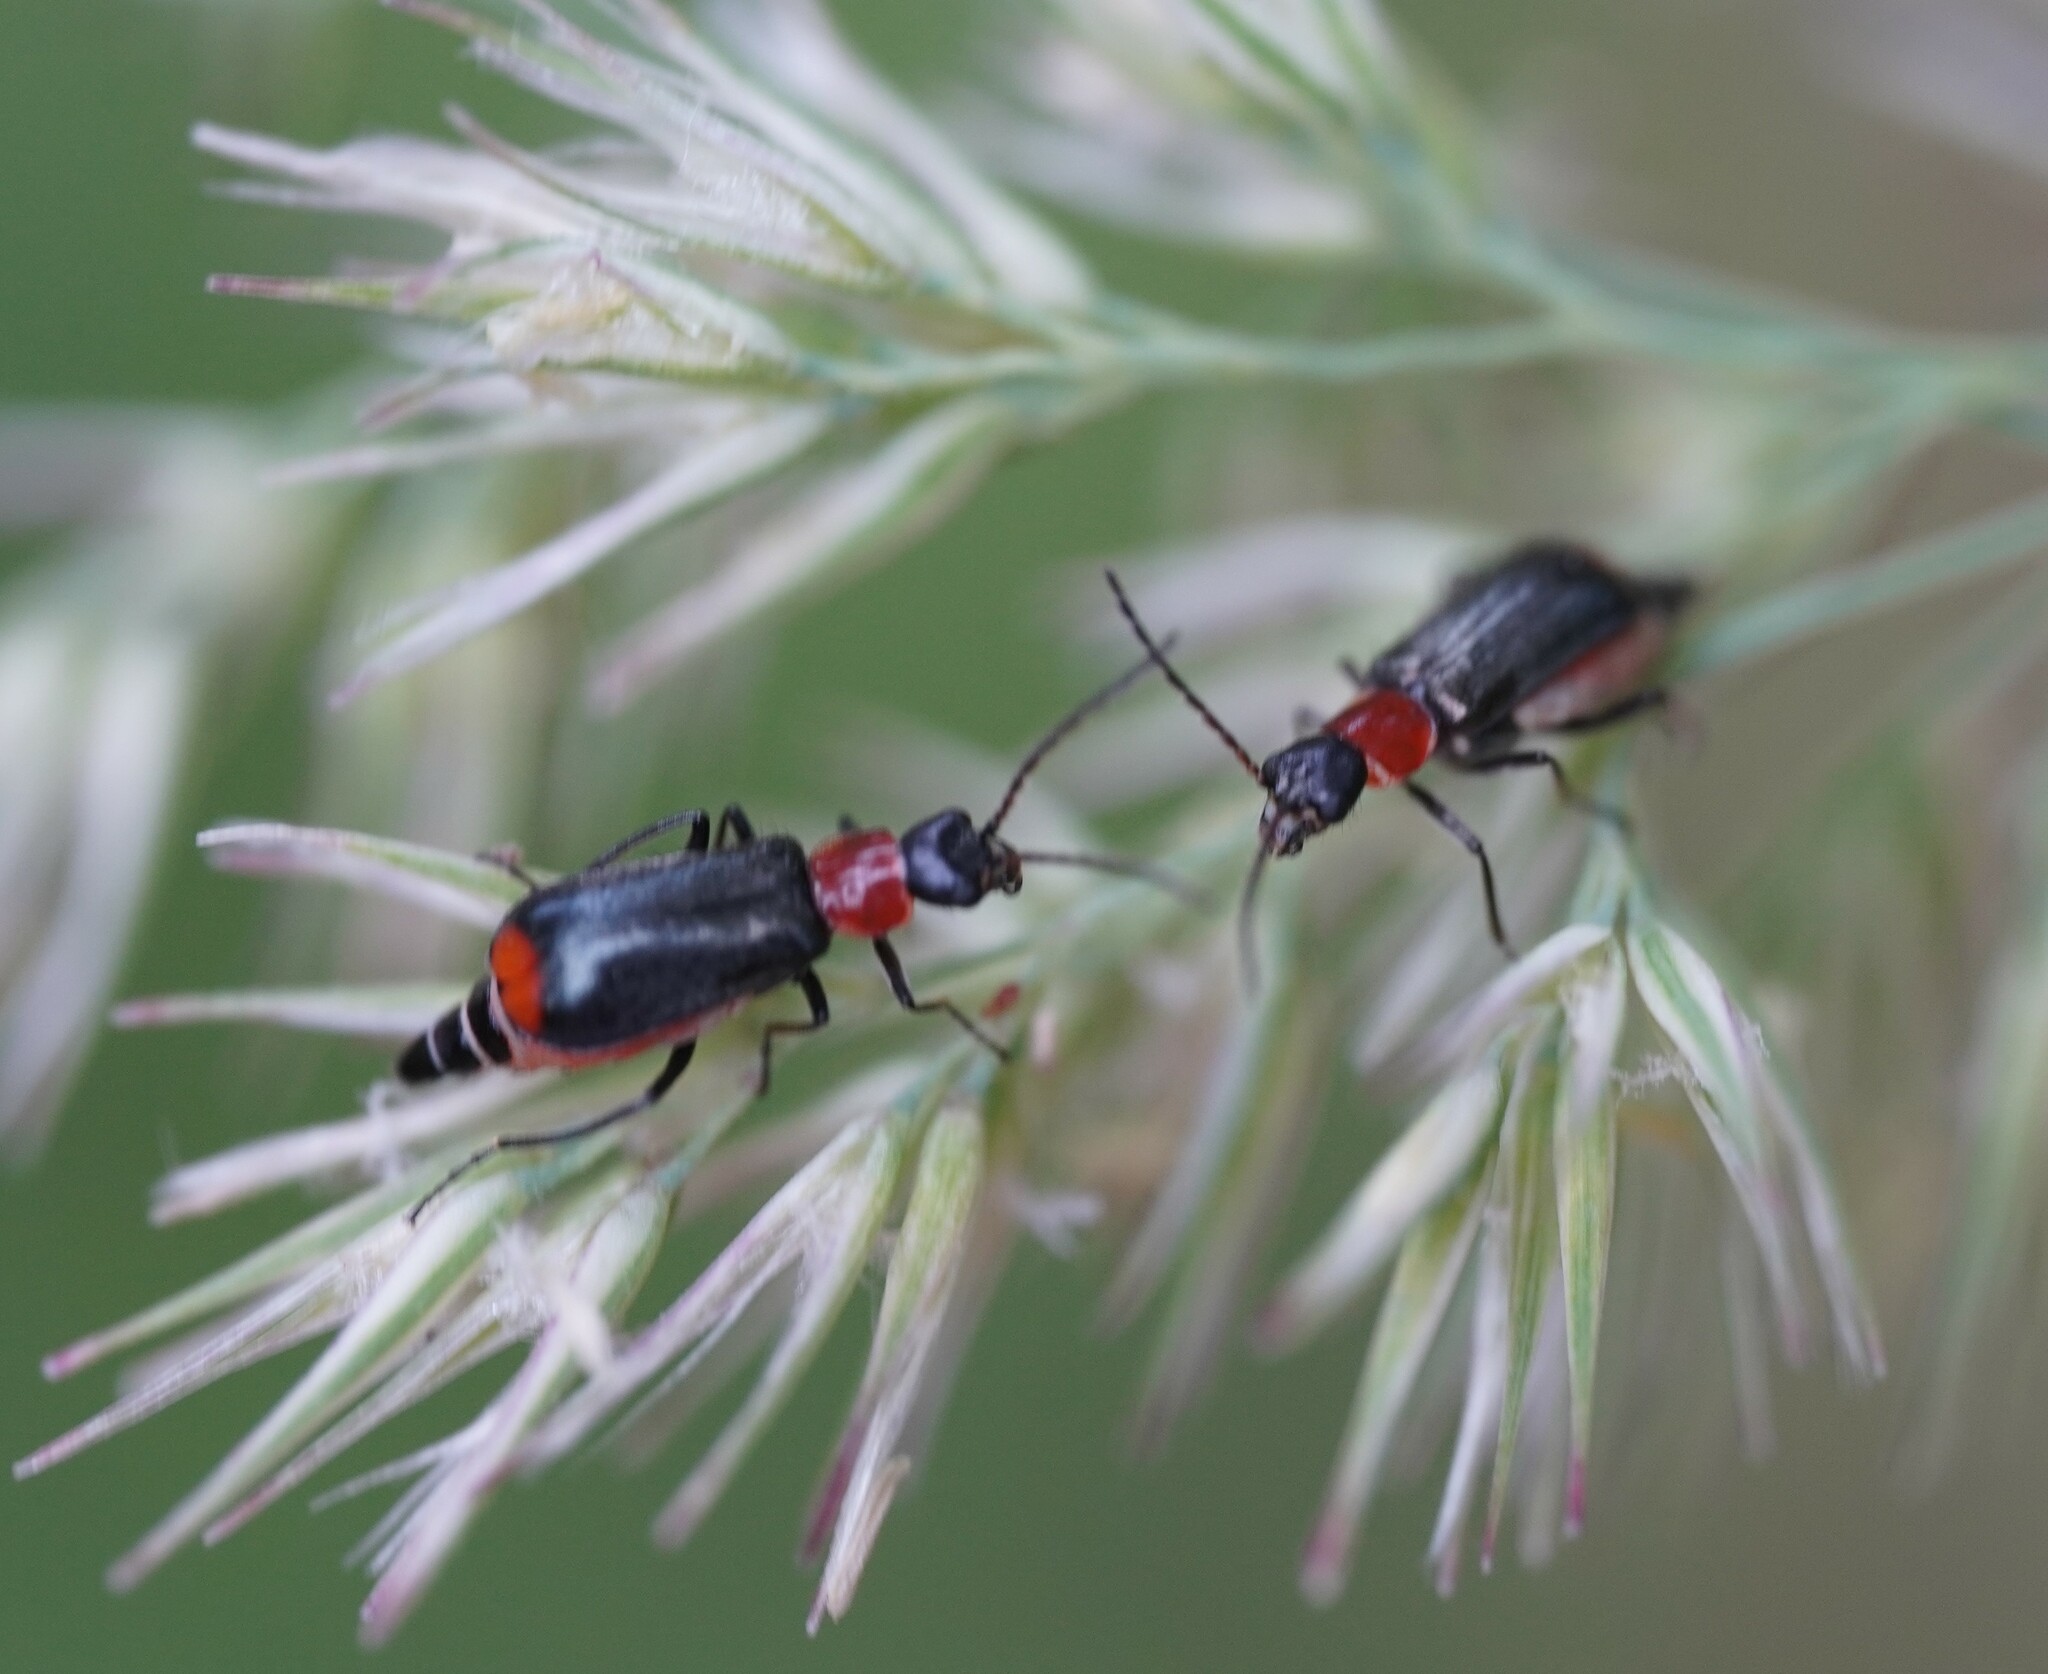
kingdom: Animalia
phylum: Arthropoda
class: Insecta
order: Coleoptera
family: Melyridae
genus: Axinotarsus
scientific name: Axinotarsus ruficollis
